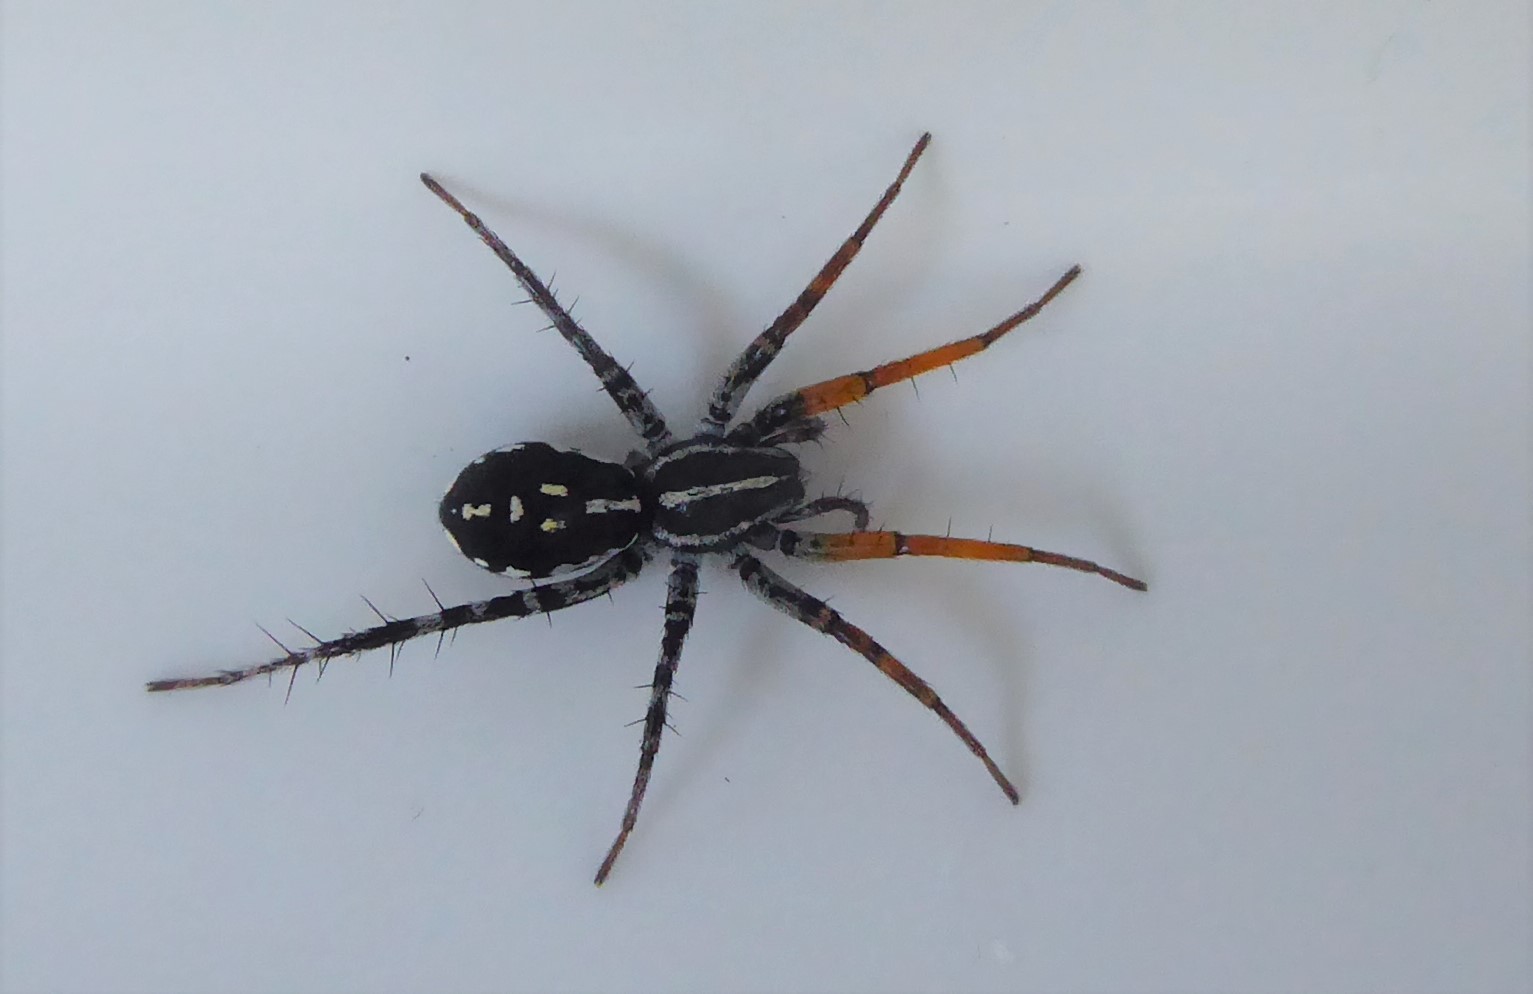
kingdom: Animalia
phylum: Arthropoda
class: Arachnida
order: Araneae
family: Corinnidae
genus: Nyssus
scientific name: Nyssus coloripes
